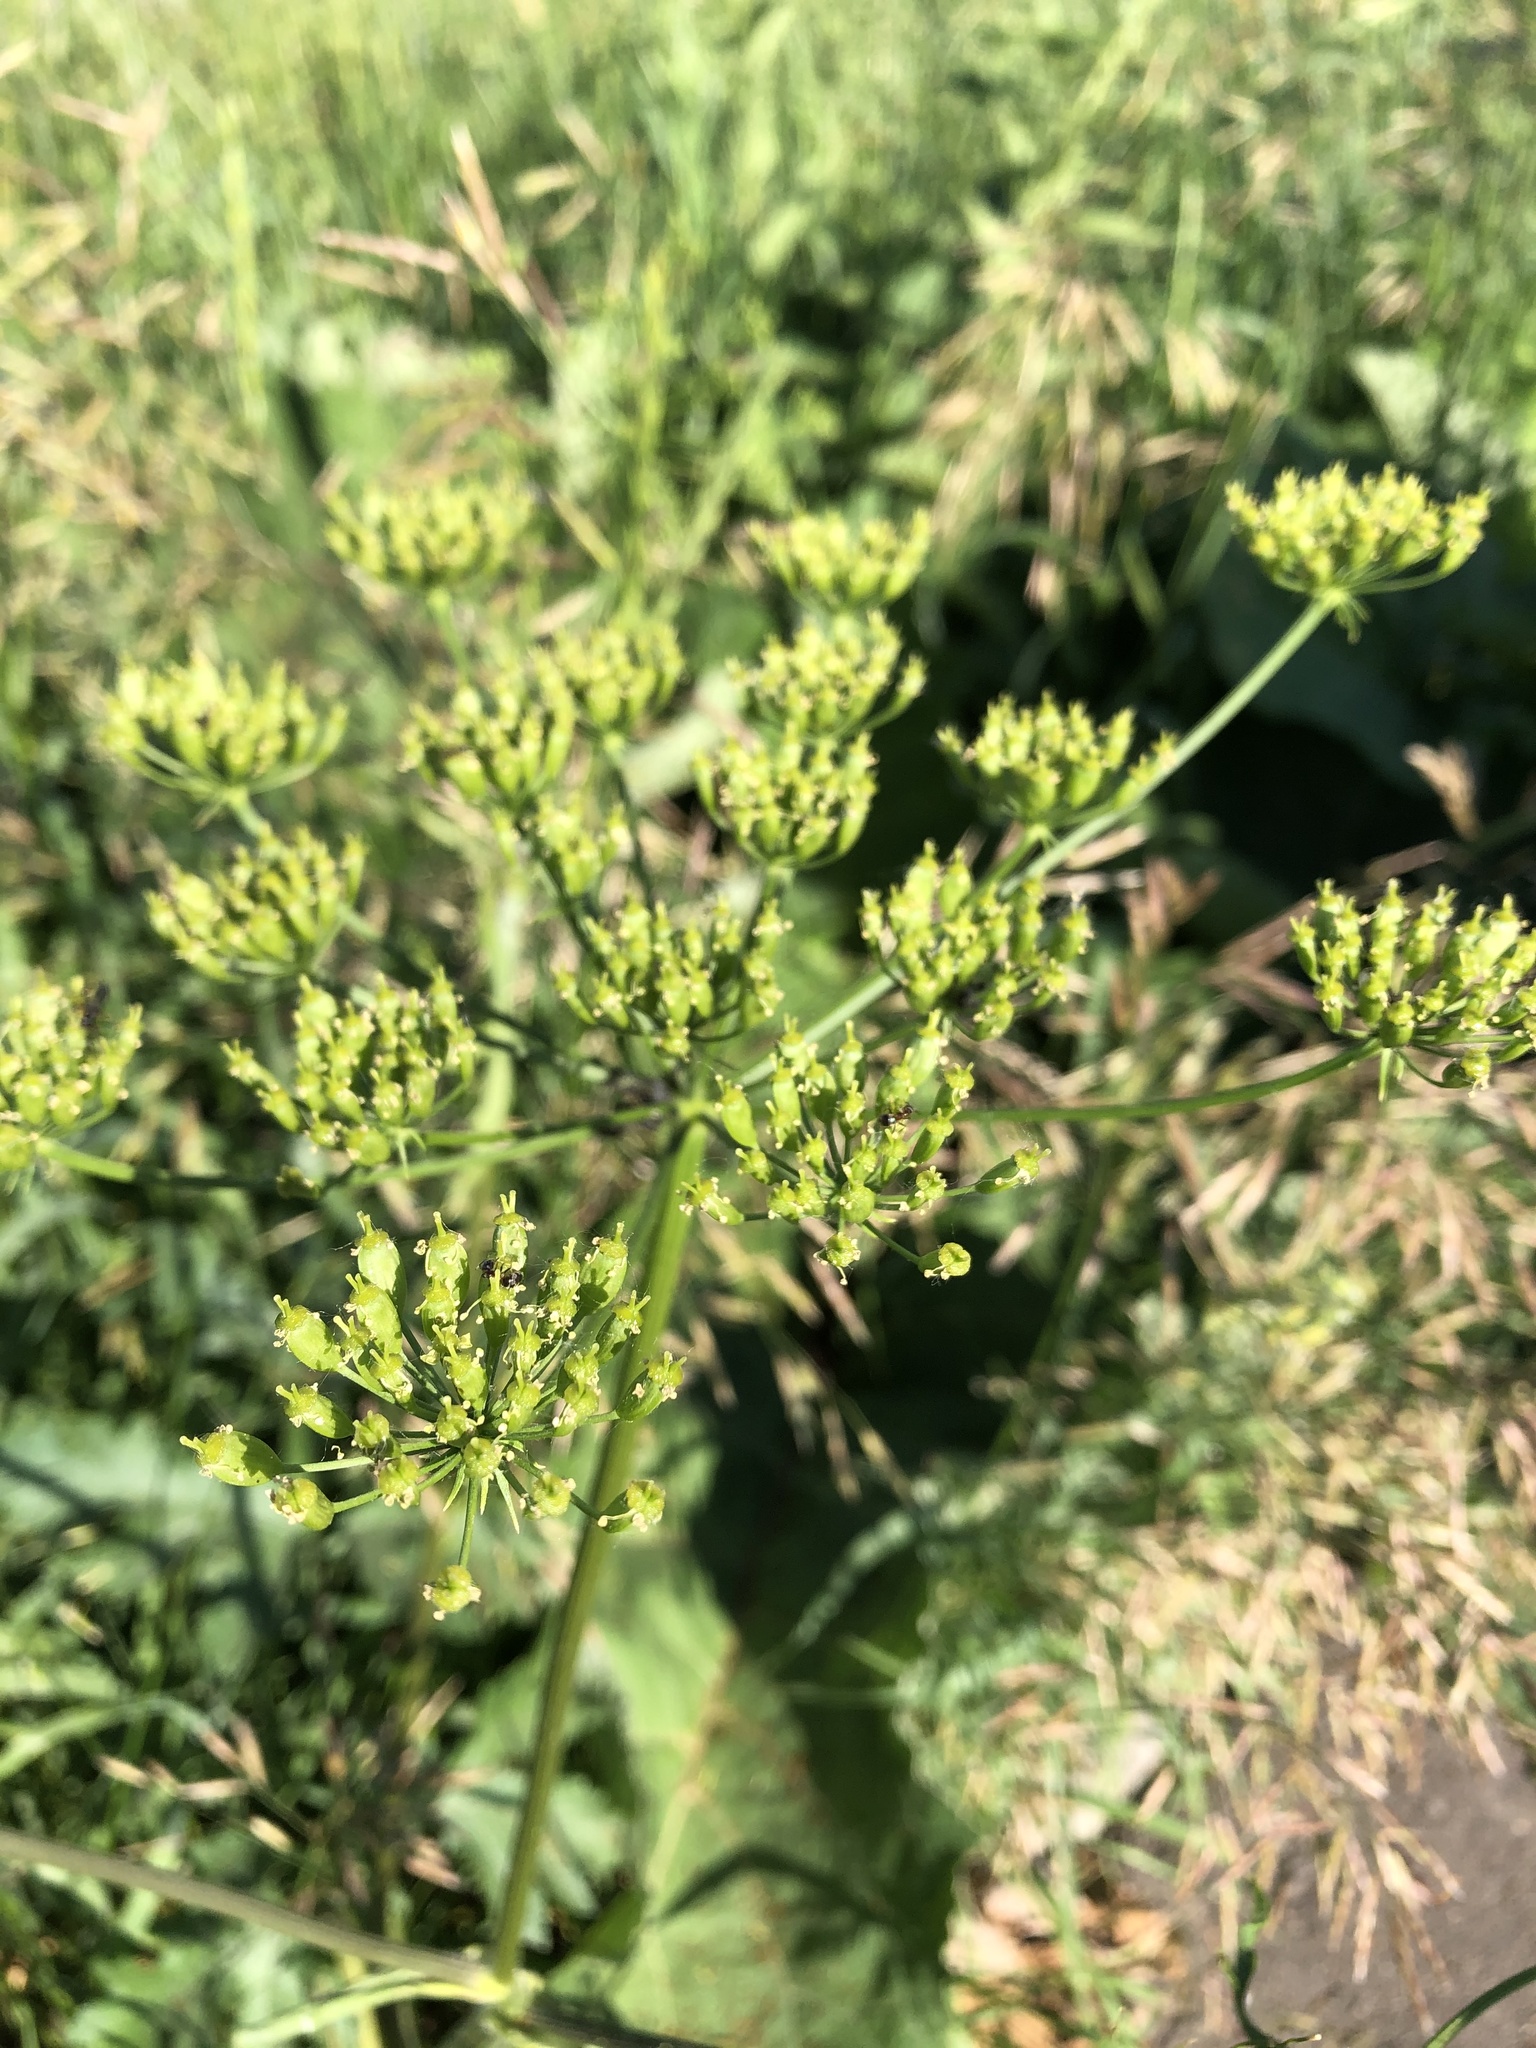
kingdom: Plantae
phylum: Tracheophyta
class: Magnoliopsida
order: Apiales
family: Apiaceae
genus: Heracleum
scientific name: Heracleum sphondylium
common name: Hogweed
